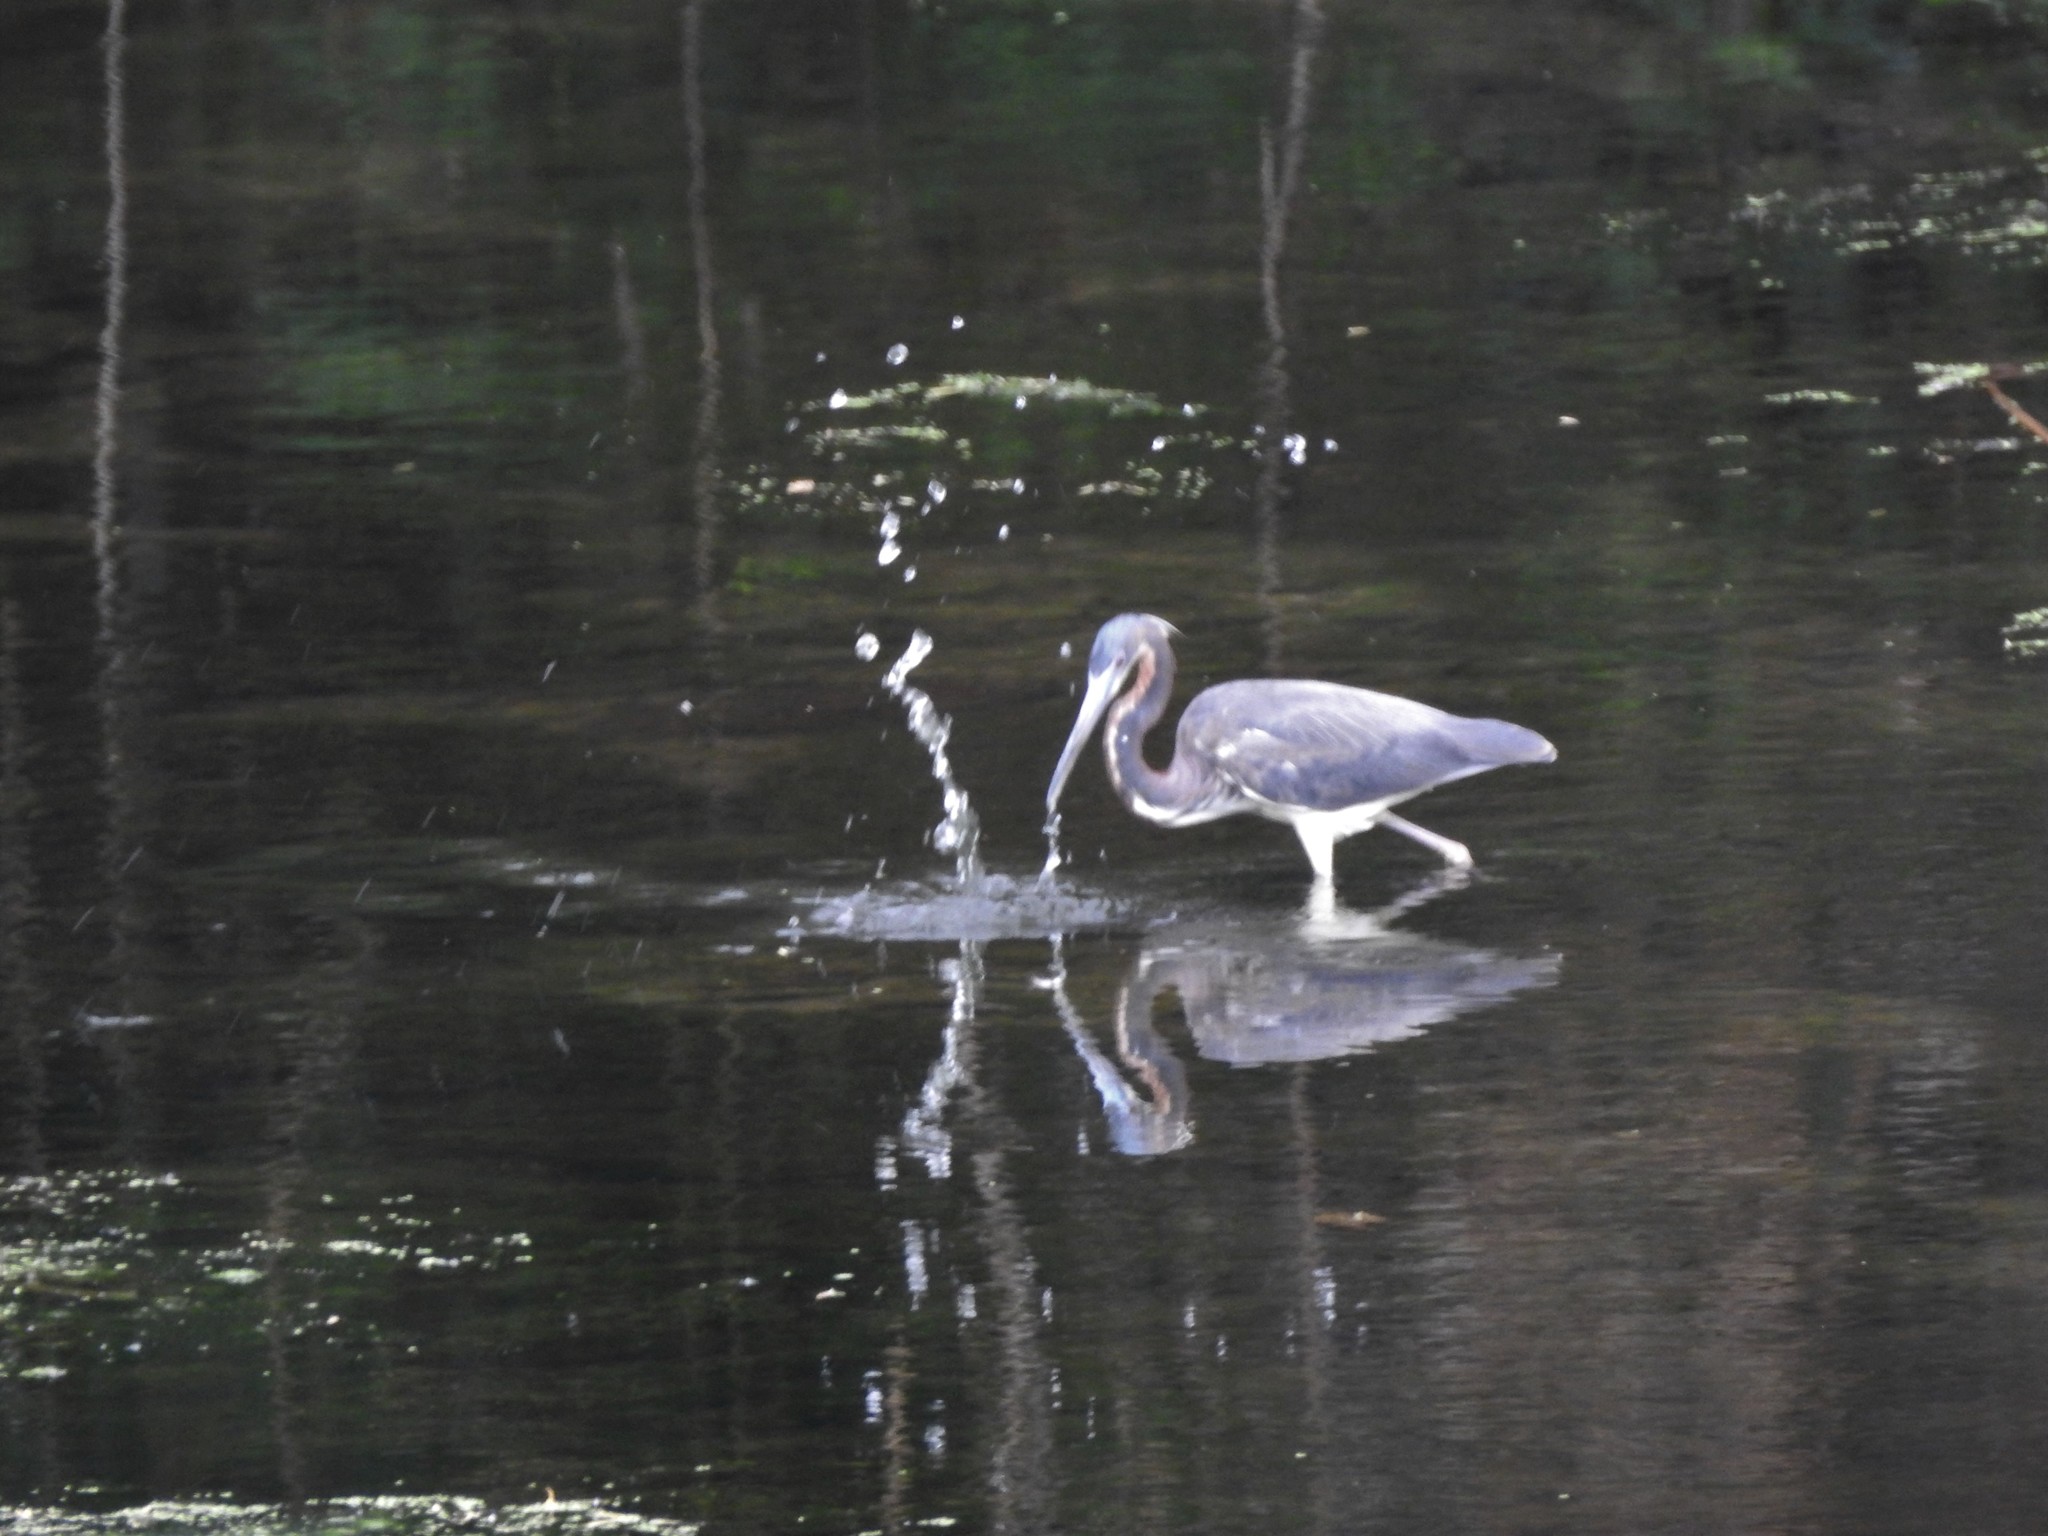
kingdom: Animalia
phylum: Chordata
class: Aves
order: Pelecaniformes
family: Ardeidae
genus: Egretta
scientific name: Egretta tricolor
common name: Tricolored heron
